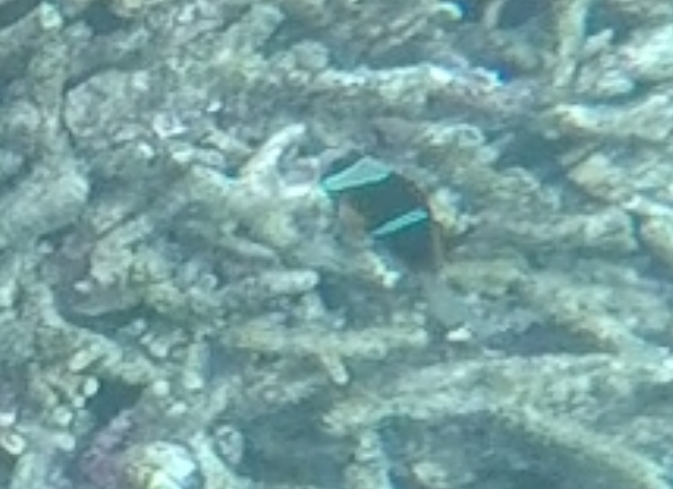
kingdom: Animalia
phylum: Chordata
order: Perciformes
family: Pomacentridae
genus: Amphiprion
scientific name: Amphiprion allardi
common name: Allard's anemonefish
